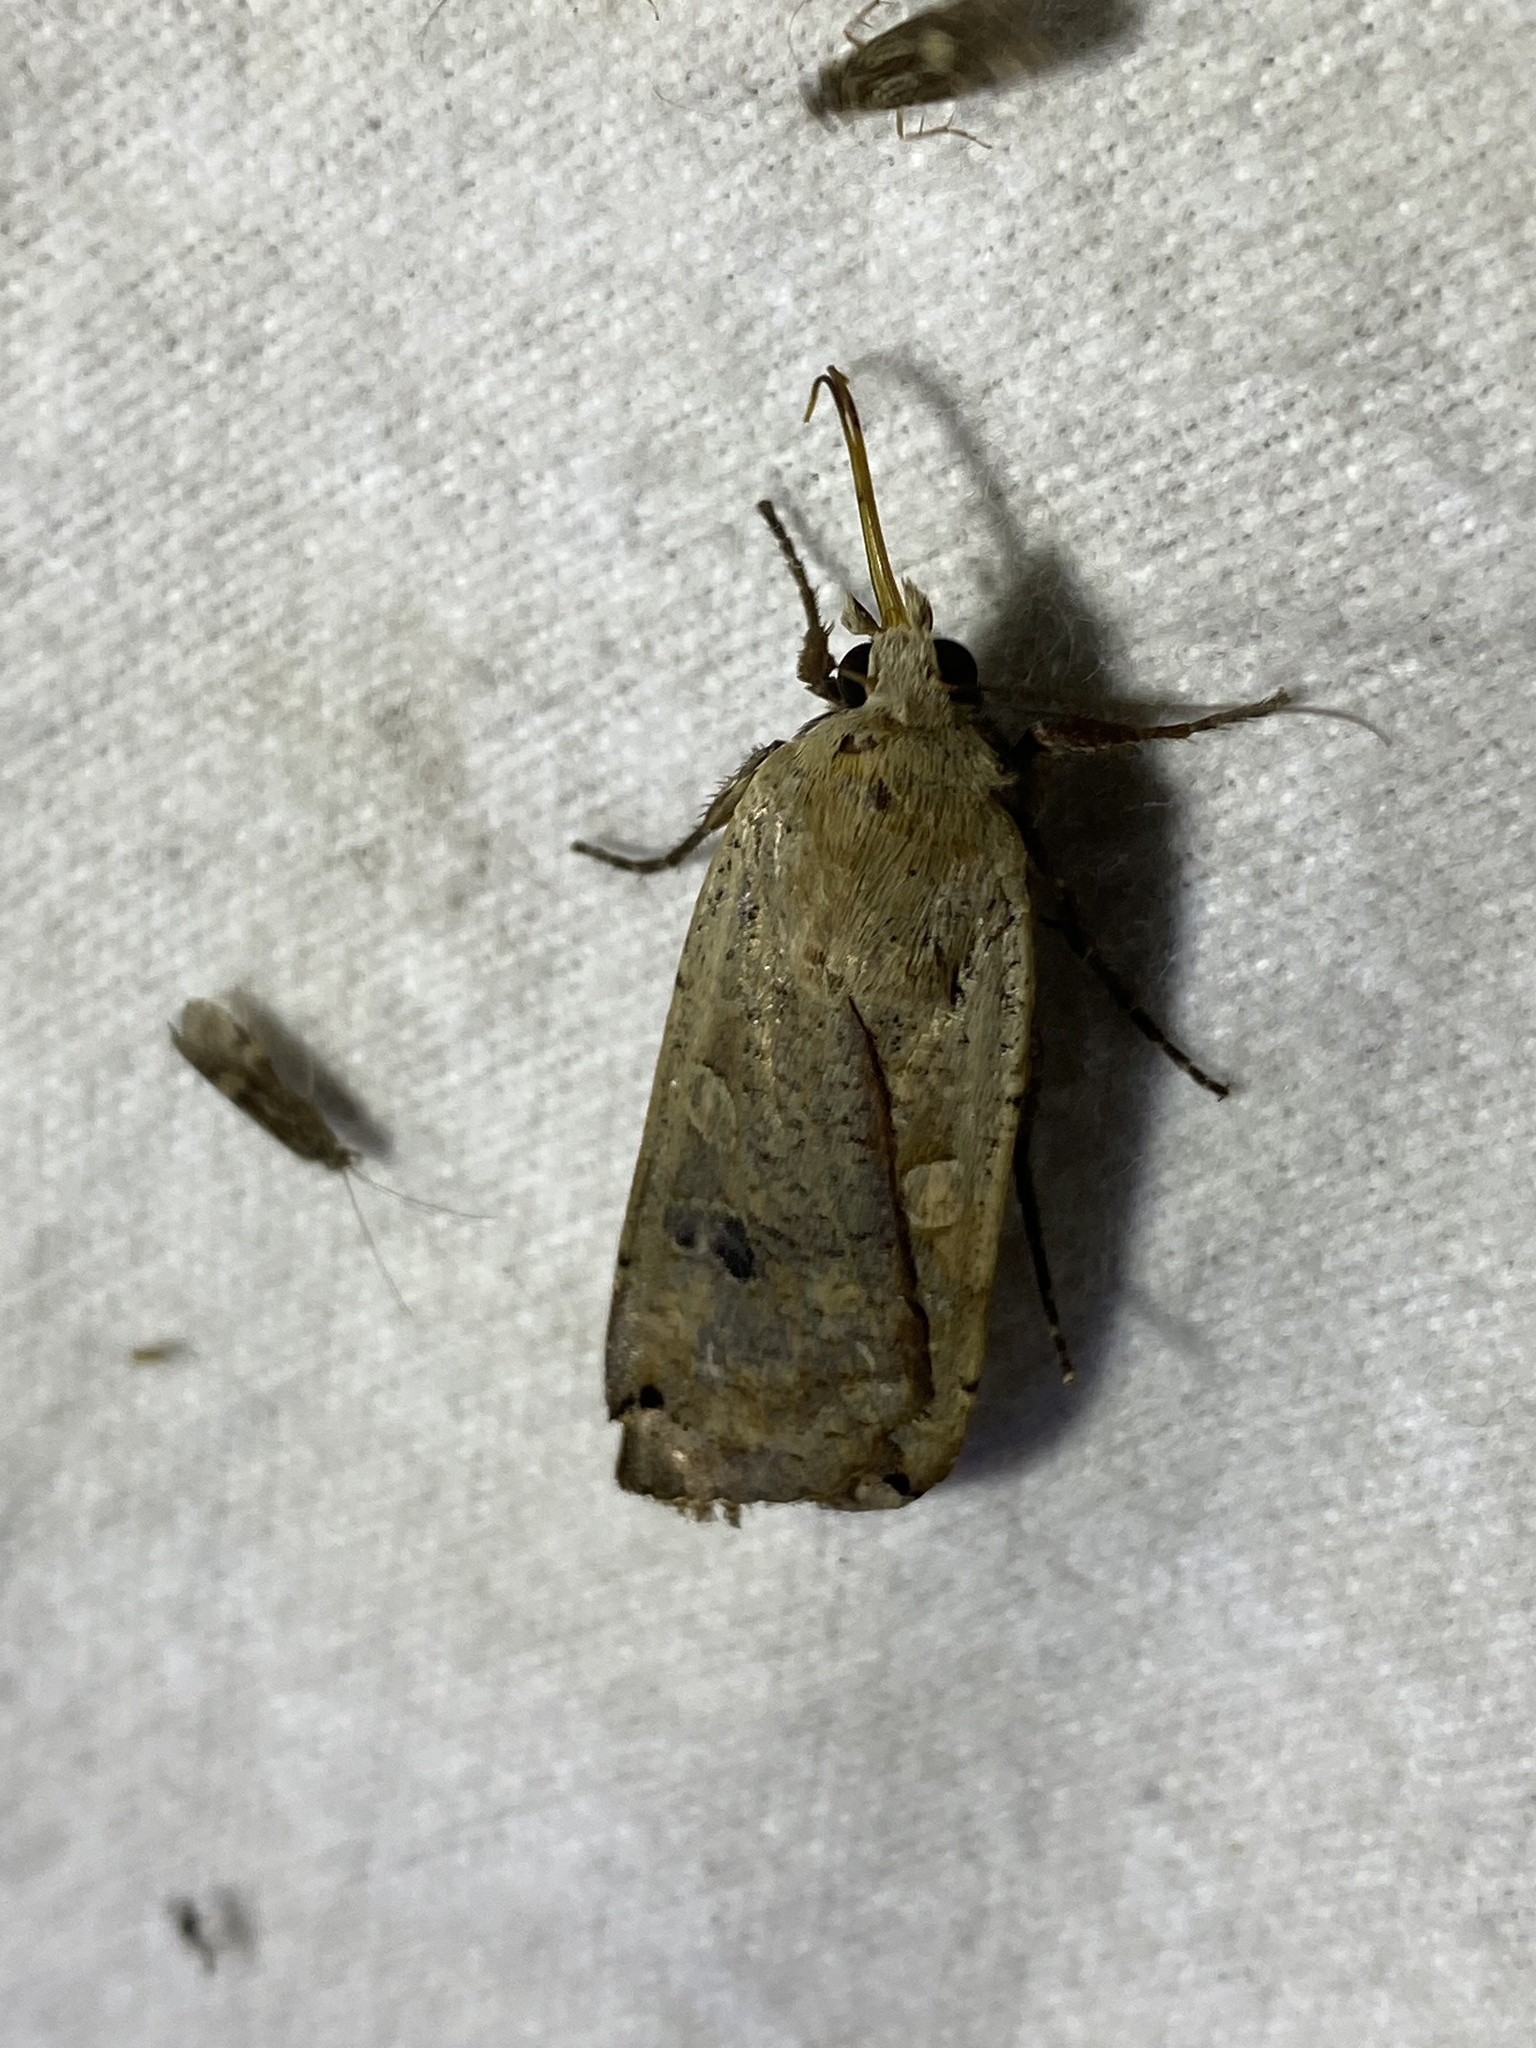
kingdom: Animalia
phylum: Arthropoda
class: Insecta
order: Lepidoptera
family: Noctuidae
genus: Noctua
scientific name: Noctua pronuba
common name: Large yellow underwing
